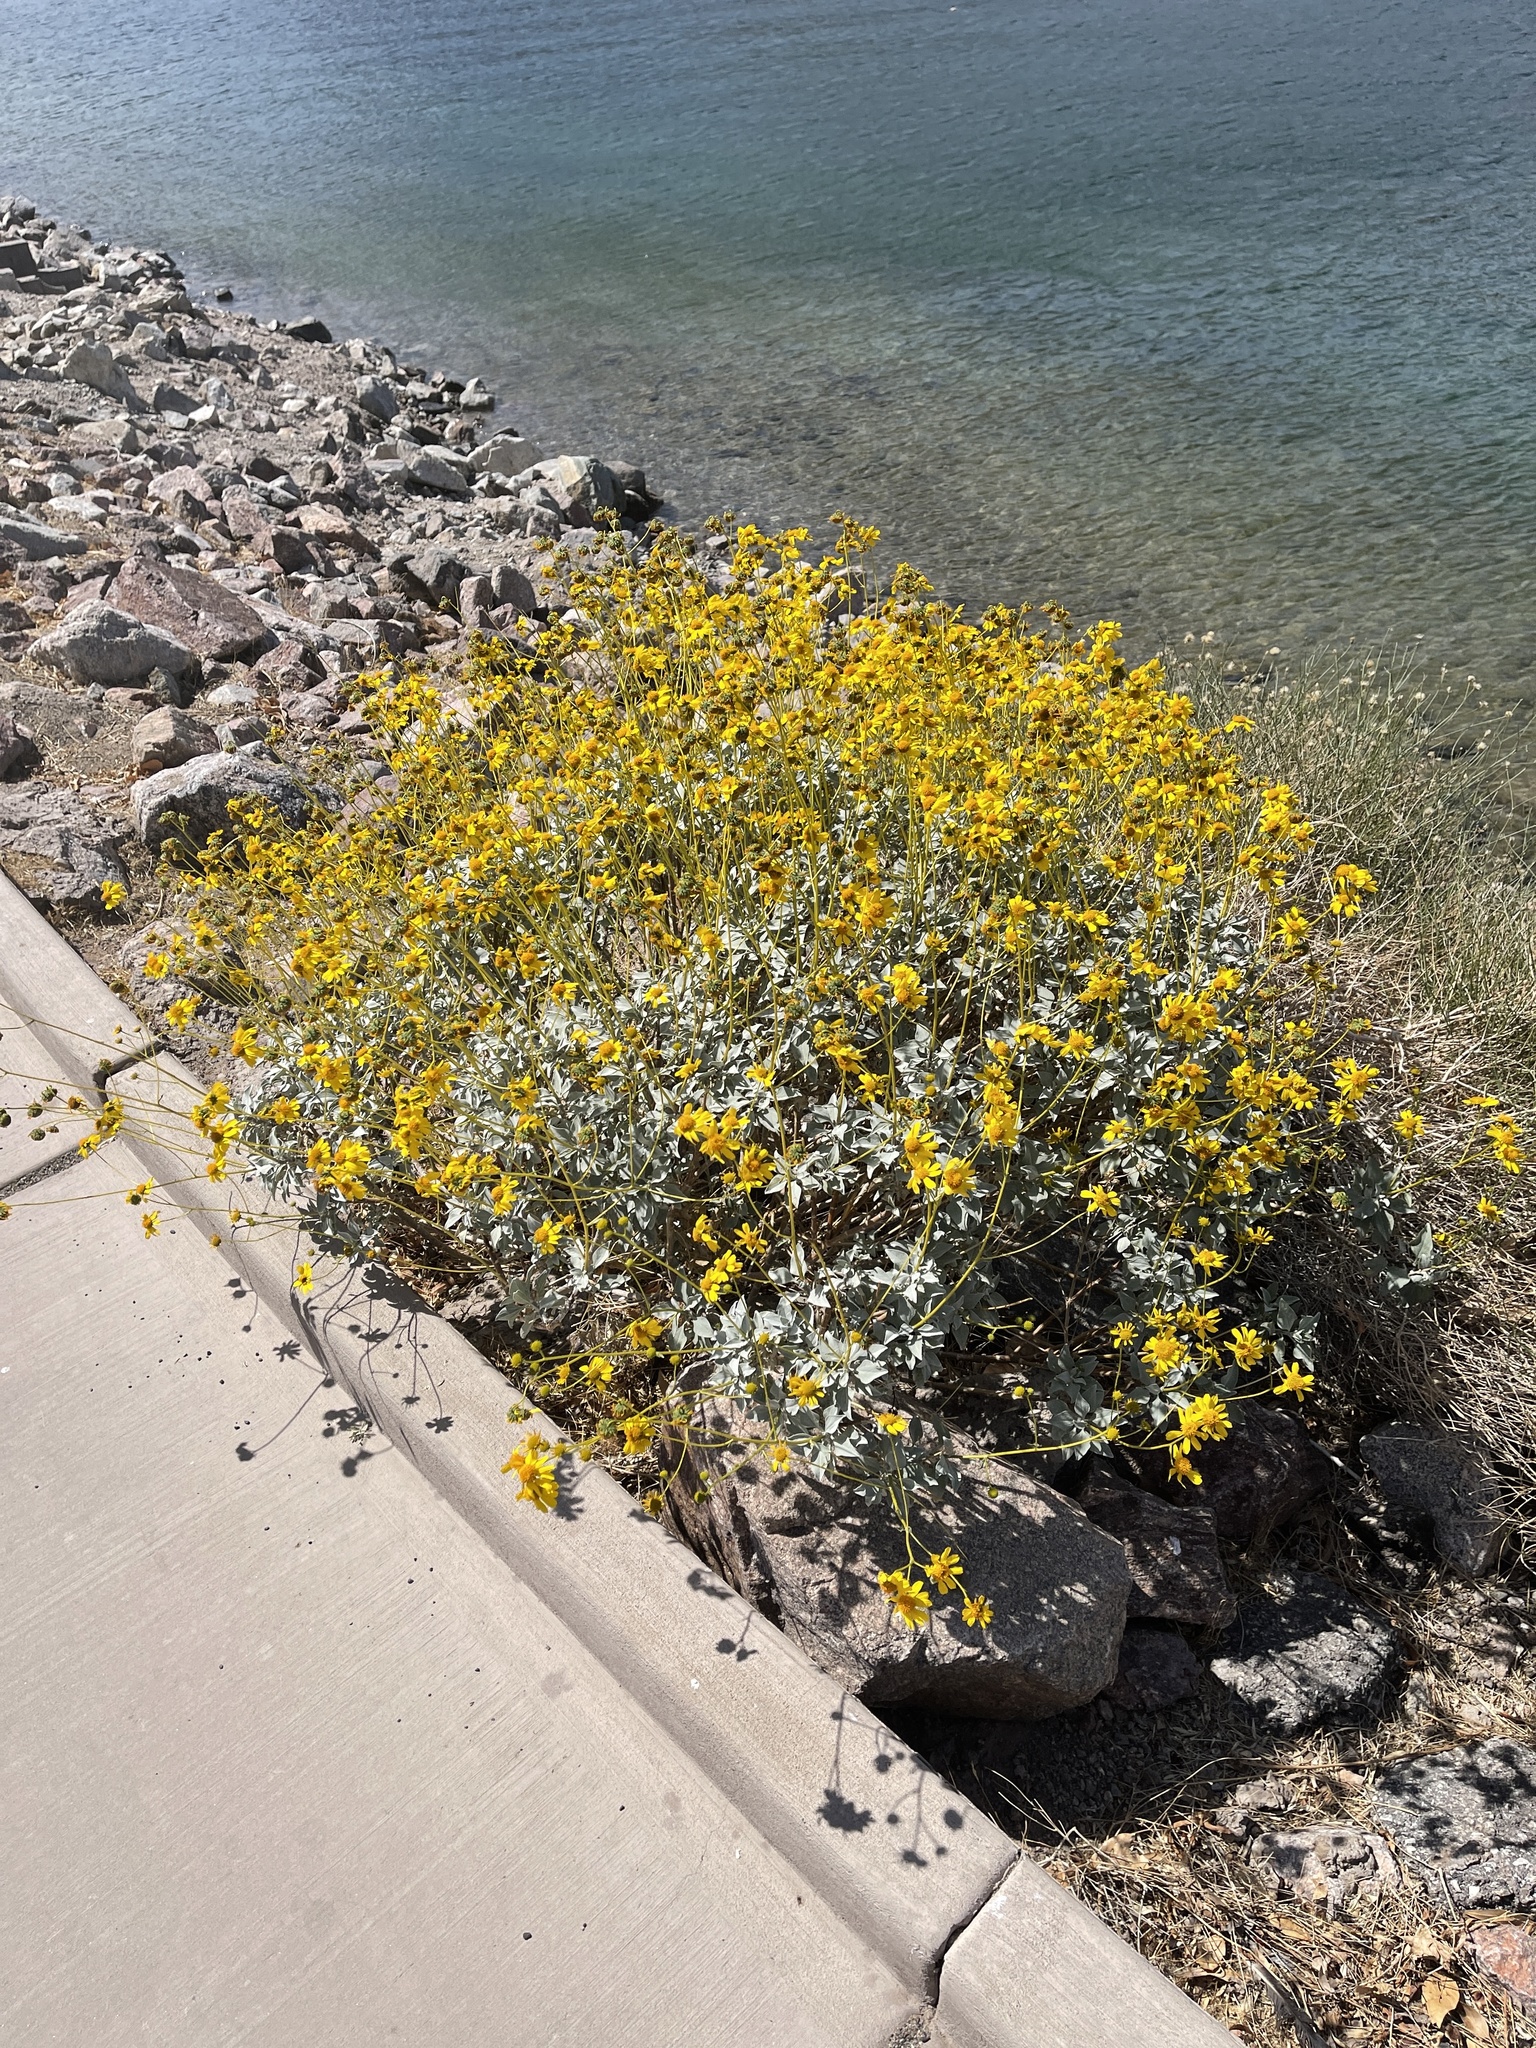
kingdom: Plantae
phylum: Tracheophyta
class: Magnoliopsida
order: Asterales
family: Asteraceae
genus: Encelia
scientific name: Encelia farinosa
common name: Brittlebush
